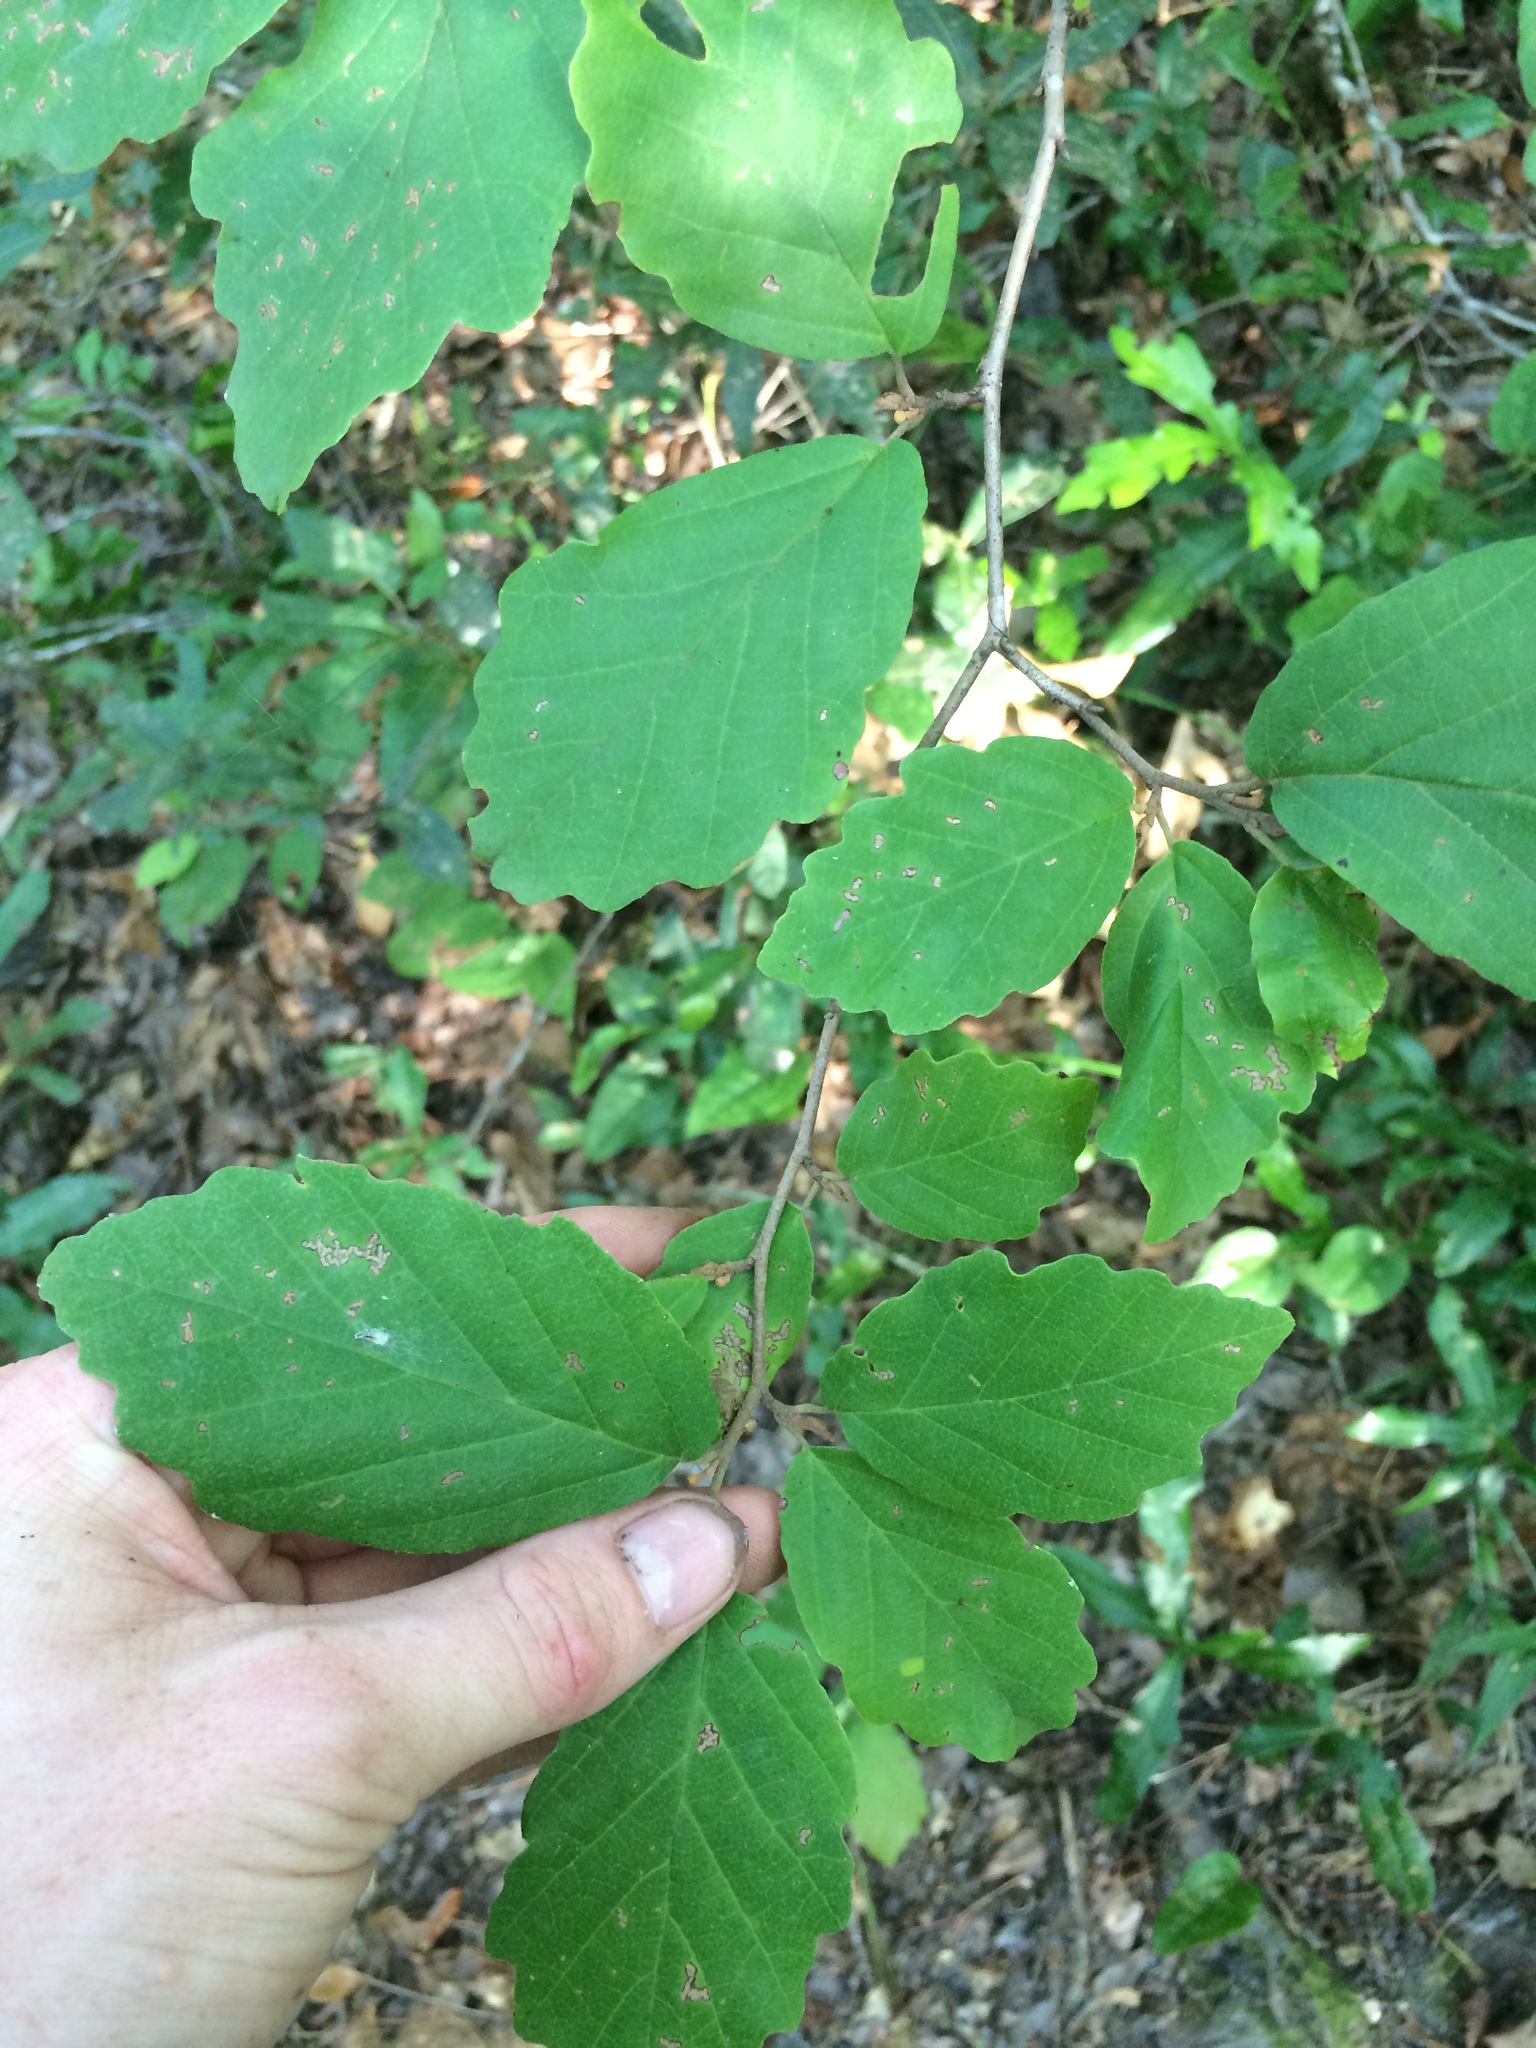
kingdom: Plantae
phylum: Tracheophyta
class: Magnoliopsida
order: Saxifragales
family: Hamamelidaceae
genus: Hamamelis
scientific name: Hamamelis virginiana
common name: Witch-hazel
